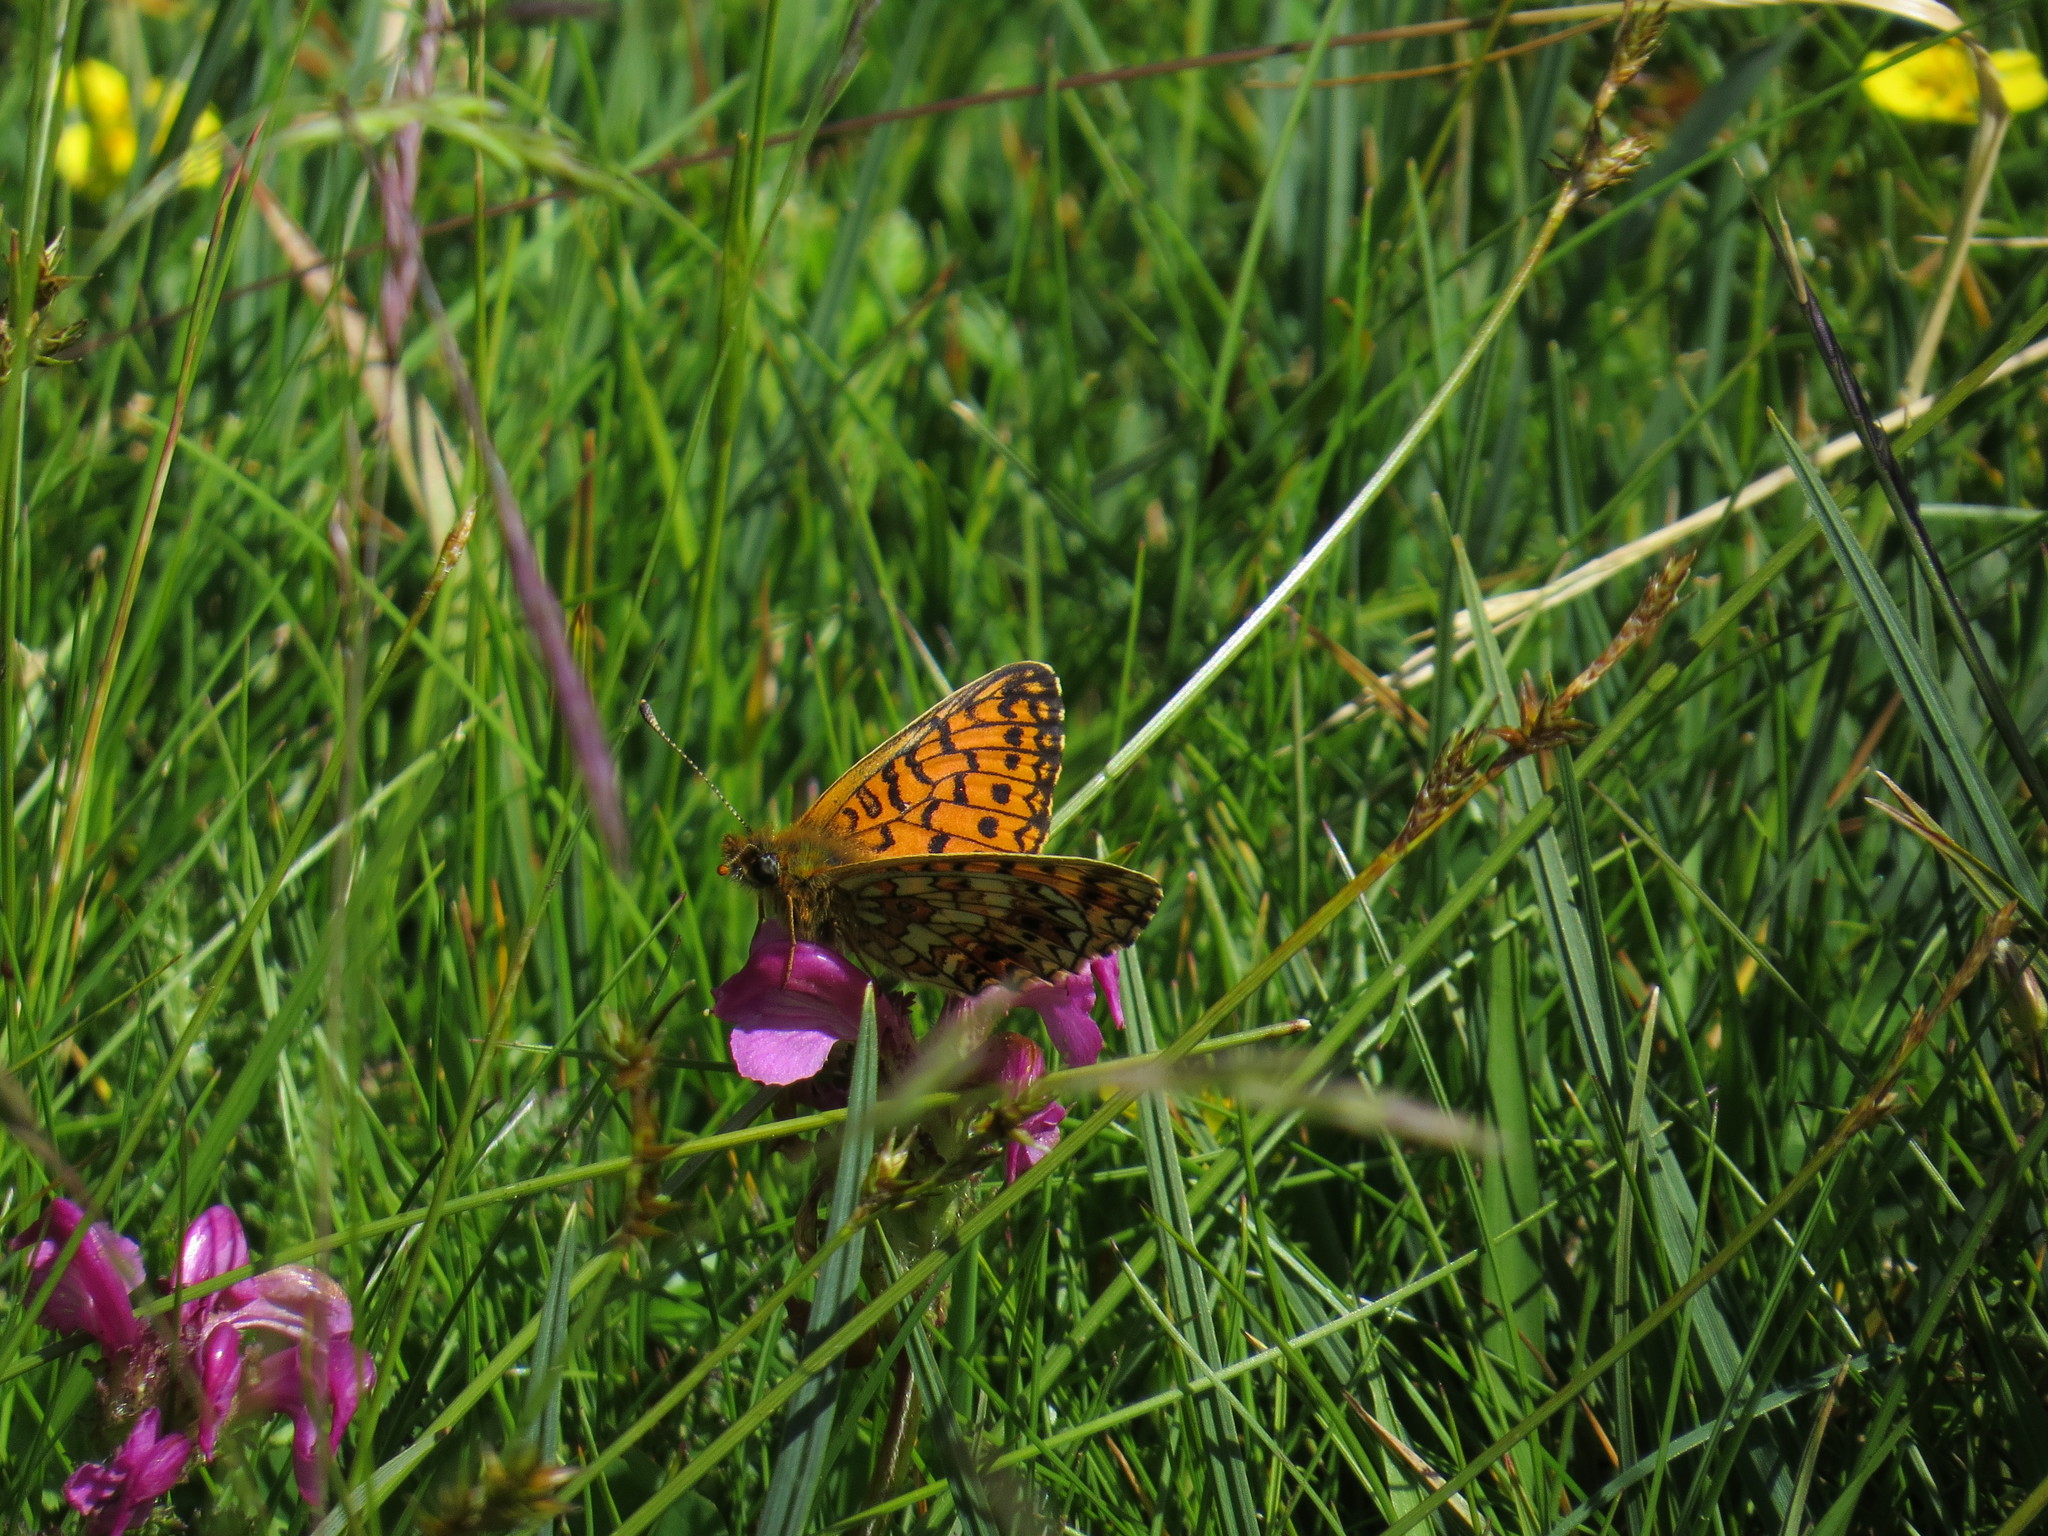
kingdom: Animalia
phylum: Arthropoda
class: Insecta
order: Lepidoptera
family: Nymphalidae
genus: Boloria
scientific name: Boloria selene
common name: Small pearl-bordered fritillary
